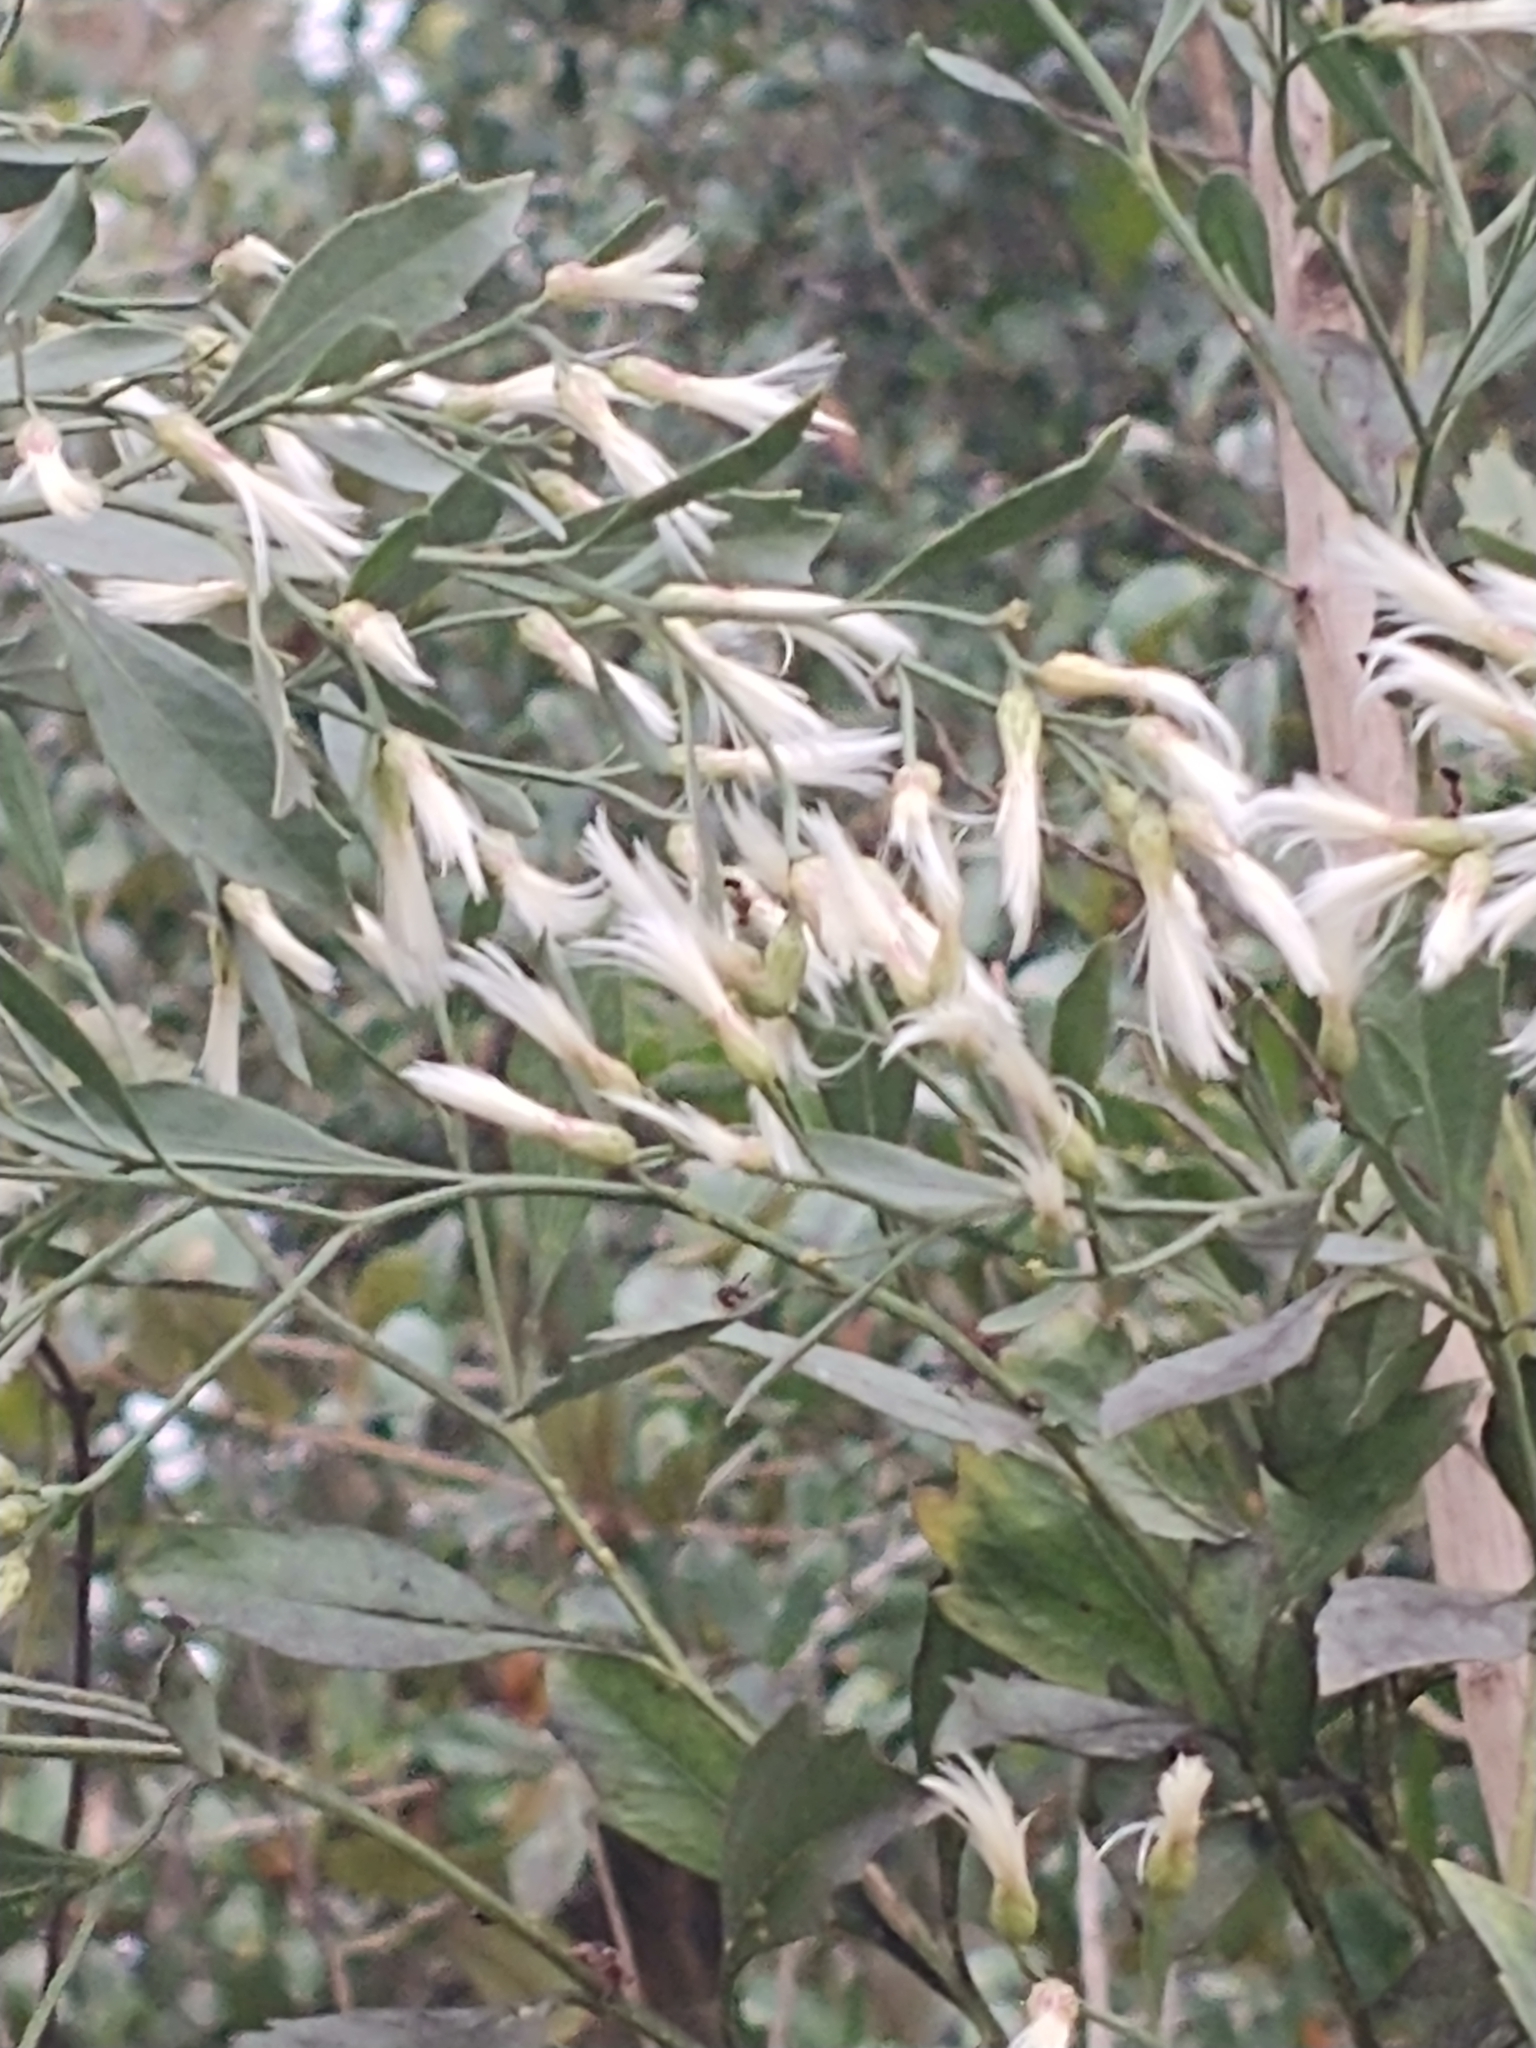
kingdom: Plantae
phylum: Tracheophyta
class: Magnoliopsida
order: Asterales
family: Asteraceae
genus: Baccharis
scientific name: Baccharis halimifolia
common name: Eastern baccharis
